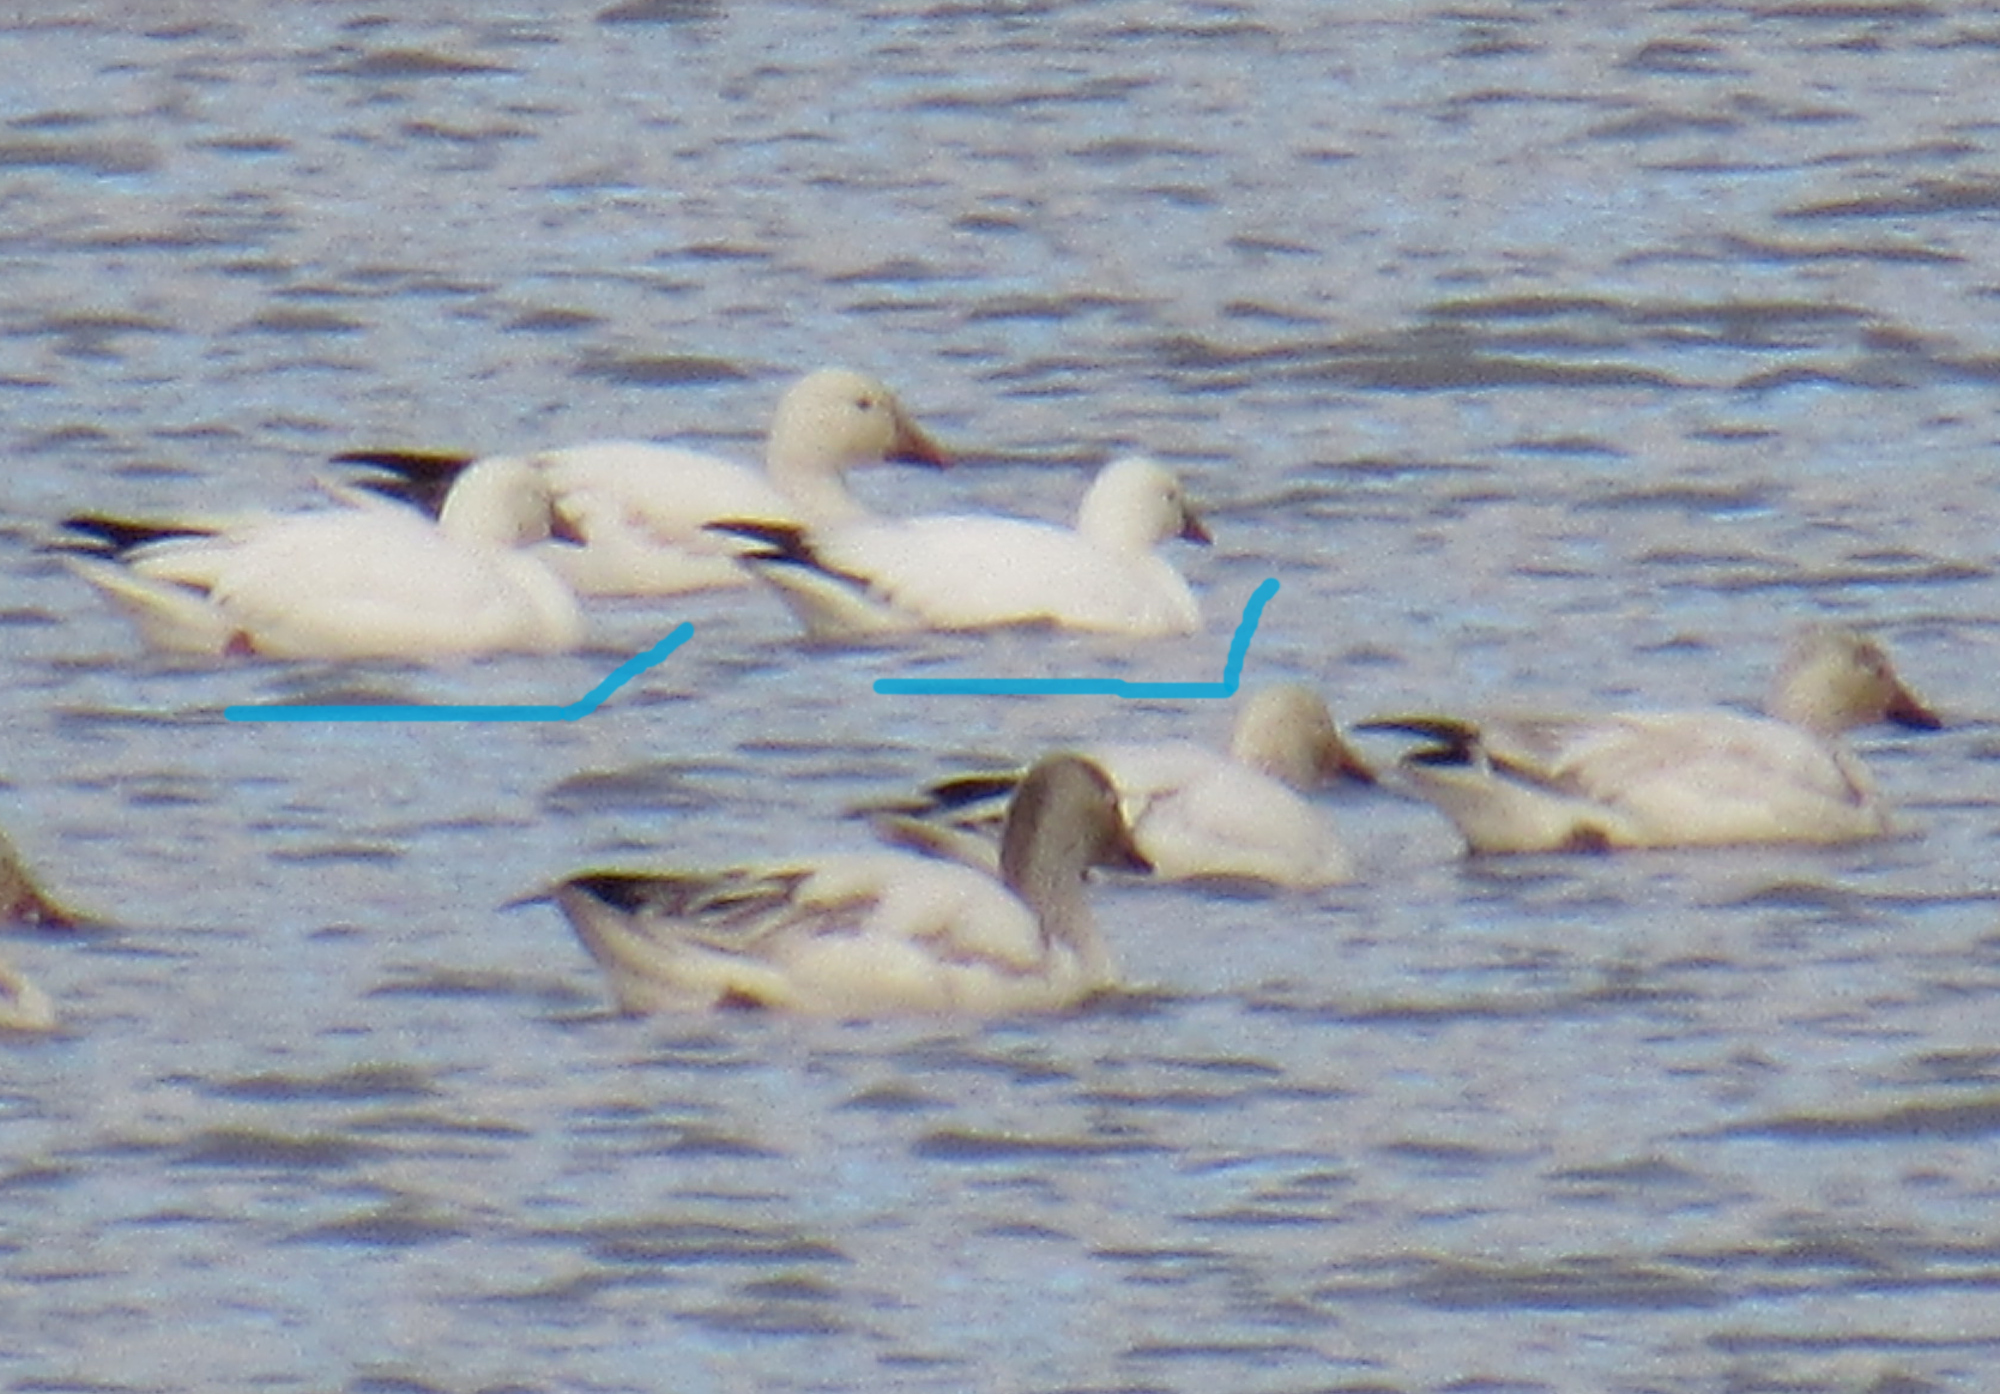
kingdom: Animalia
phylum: Chordata
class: Aves
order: Anseriformes
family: Anatidae
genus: Anser
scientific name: Anser rossii
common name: Ross's goose
